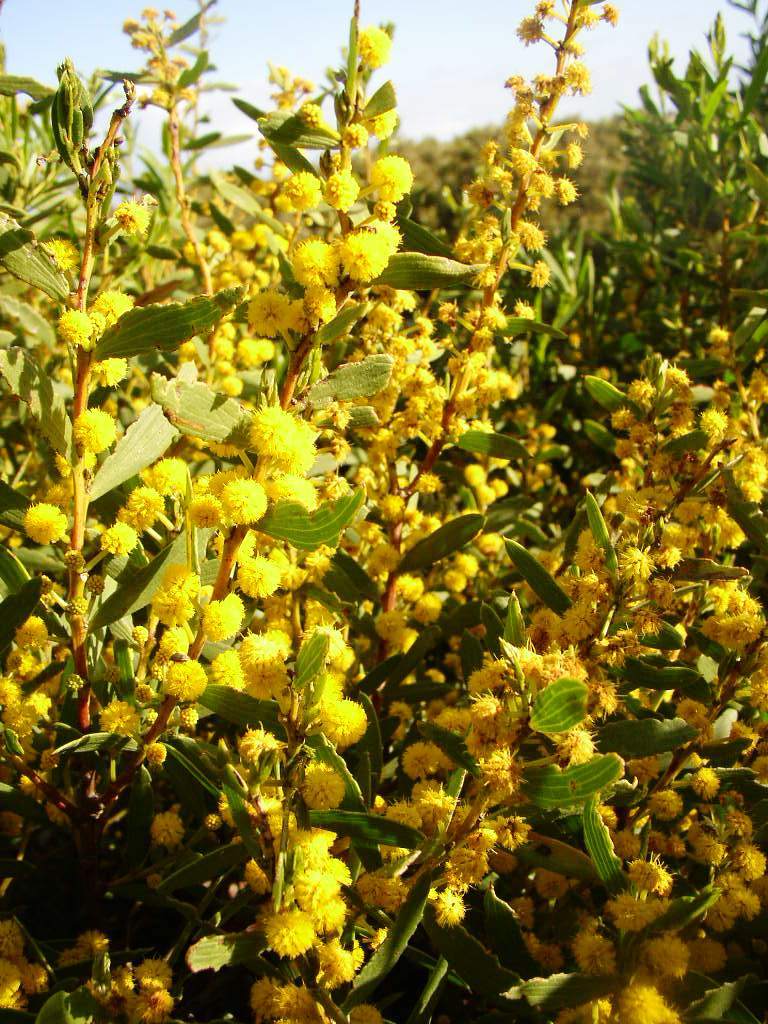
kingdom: Plantae
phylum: Tracheophyta
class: Magnoliopsida
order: Fabales
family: Fabaceae
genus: Acacia
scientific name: Acacia cochlearis
